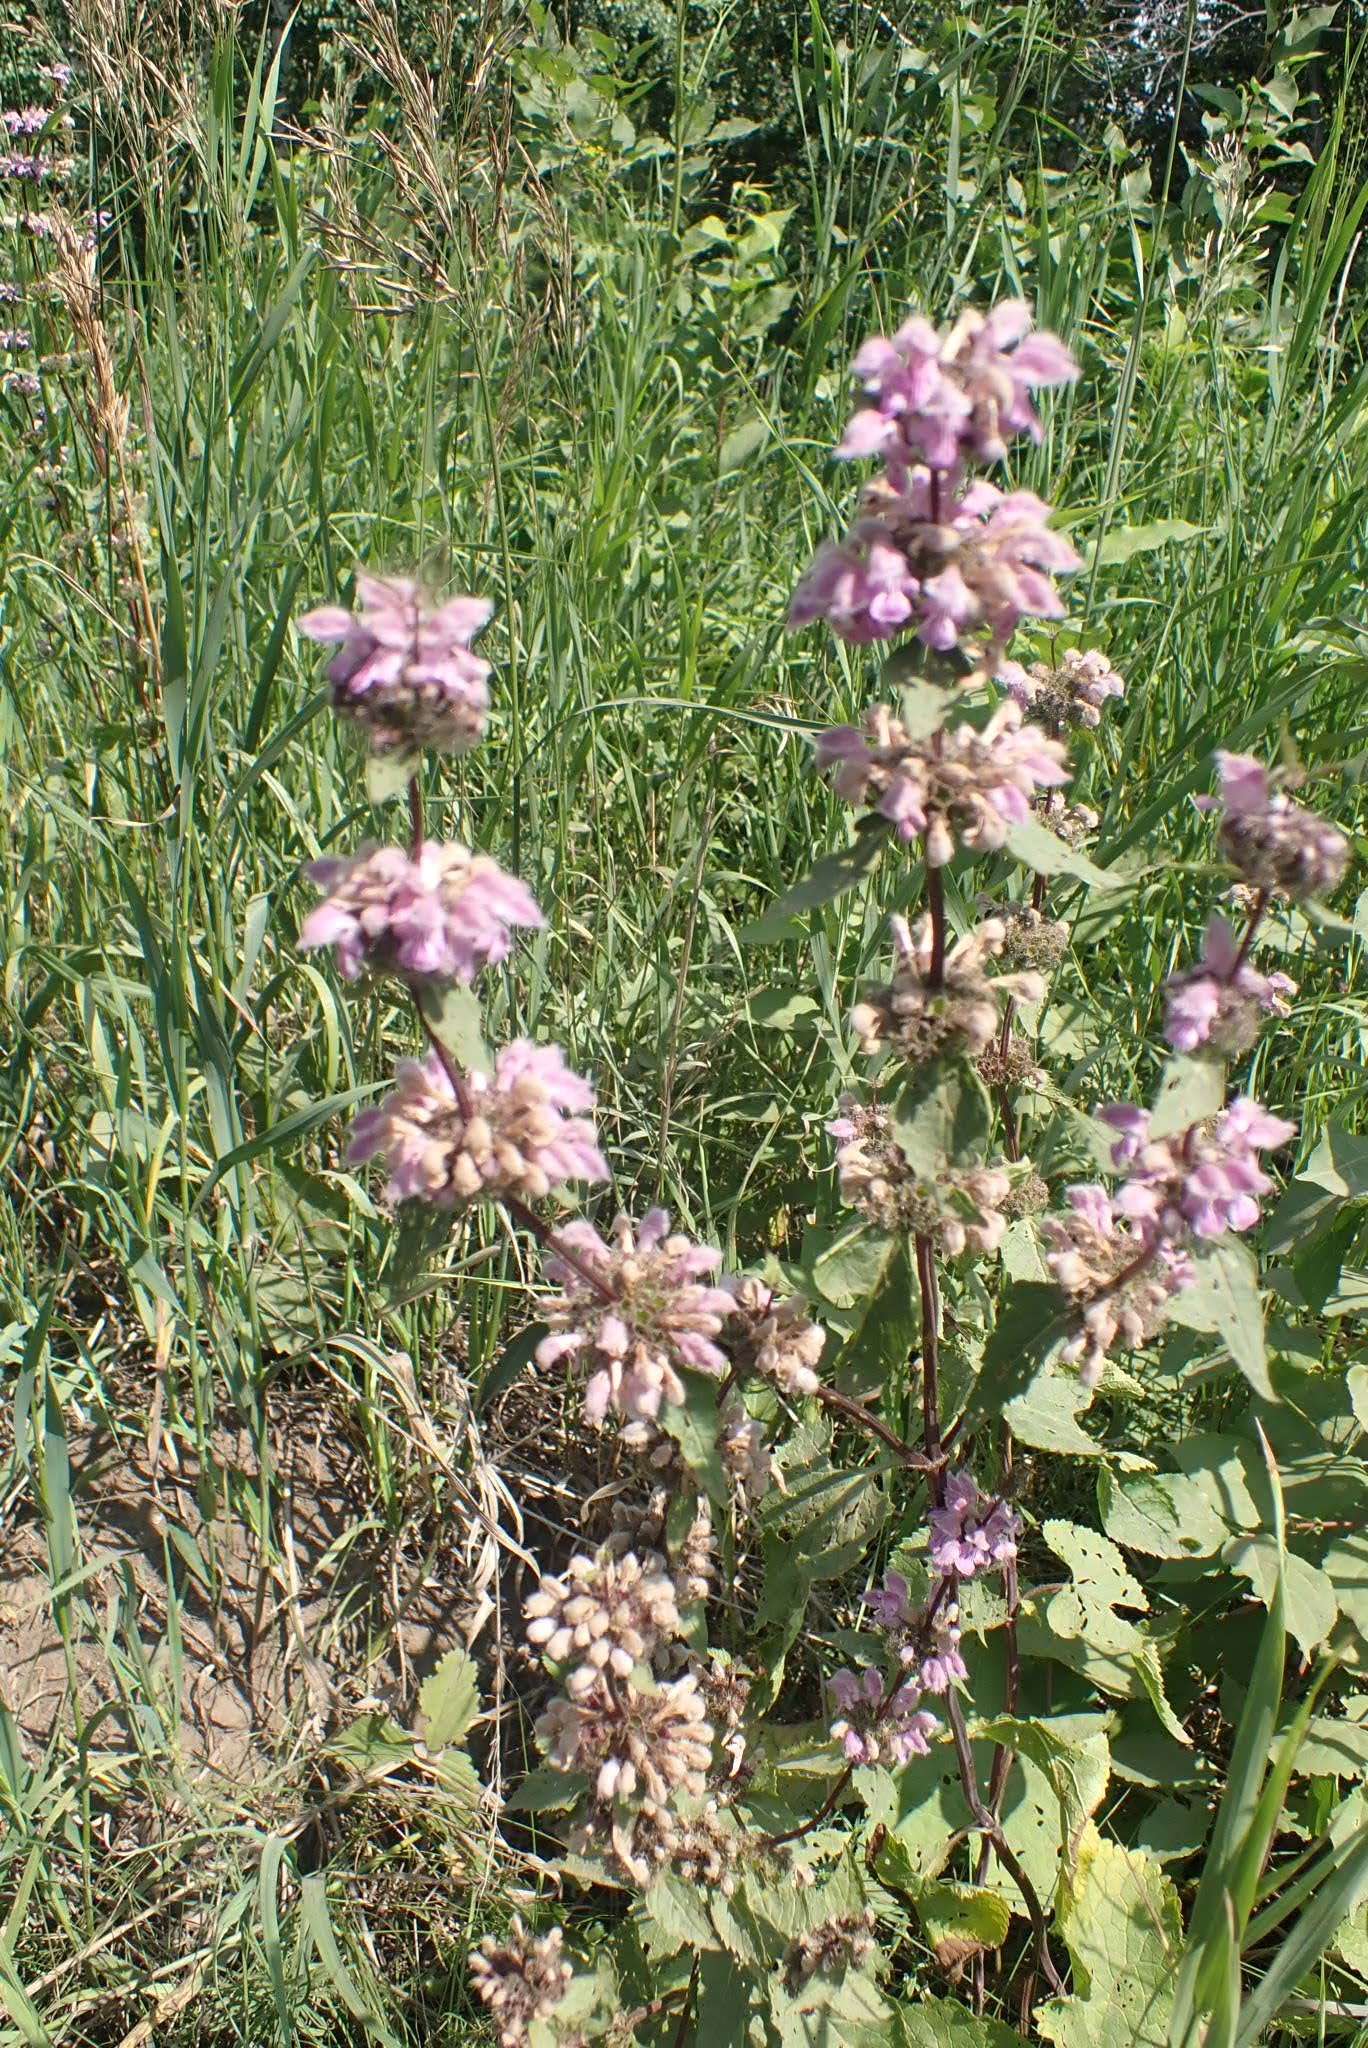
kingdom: Plantae
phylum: Tracheophyta
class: Magnoliopsida
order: Lamiales
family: Lamiaceae
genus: Phlomoides
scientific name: Phlomoides tuberosa
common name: Tuberous jerusalem sage
